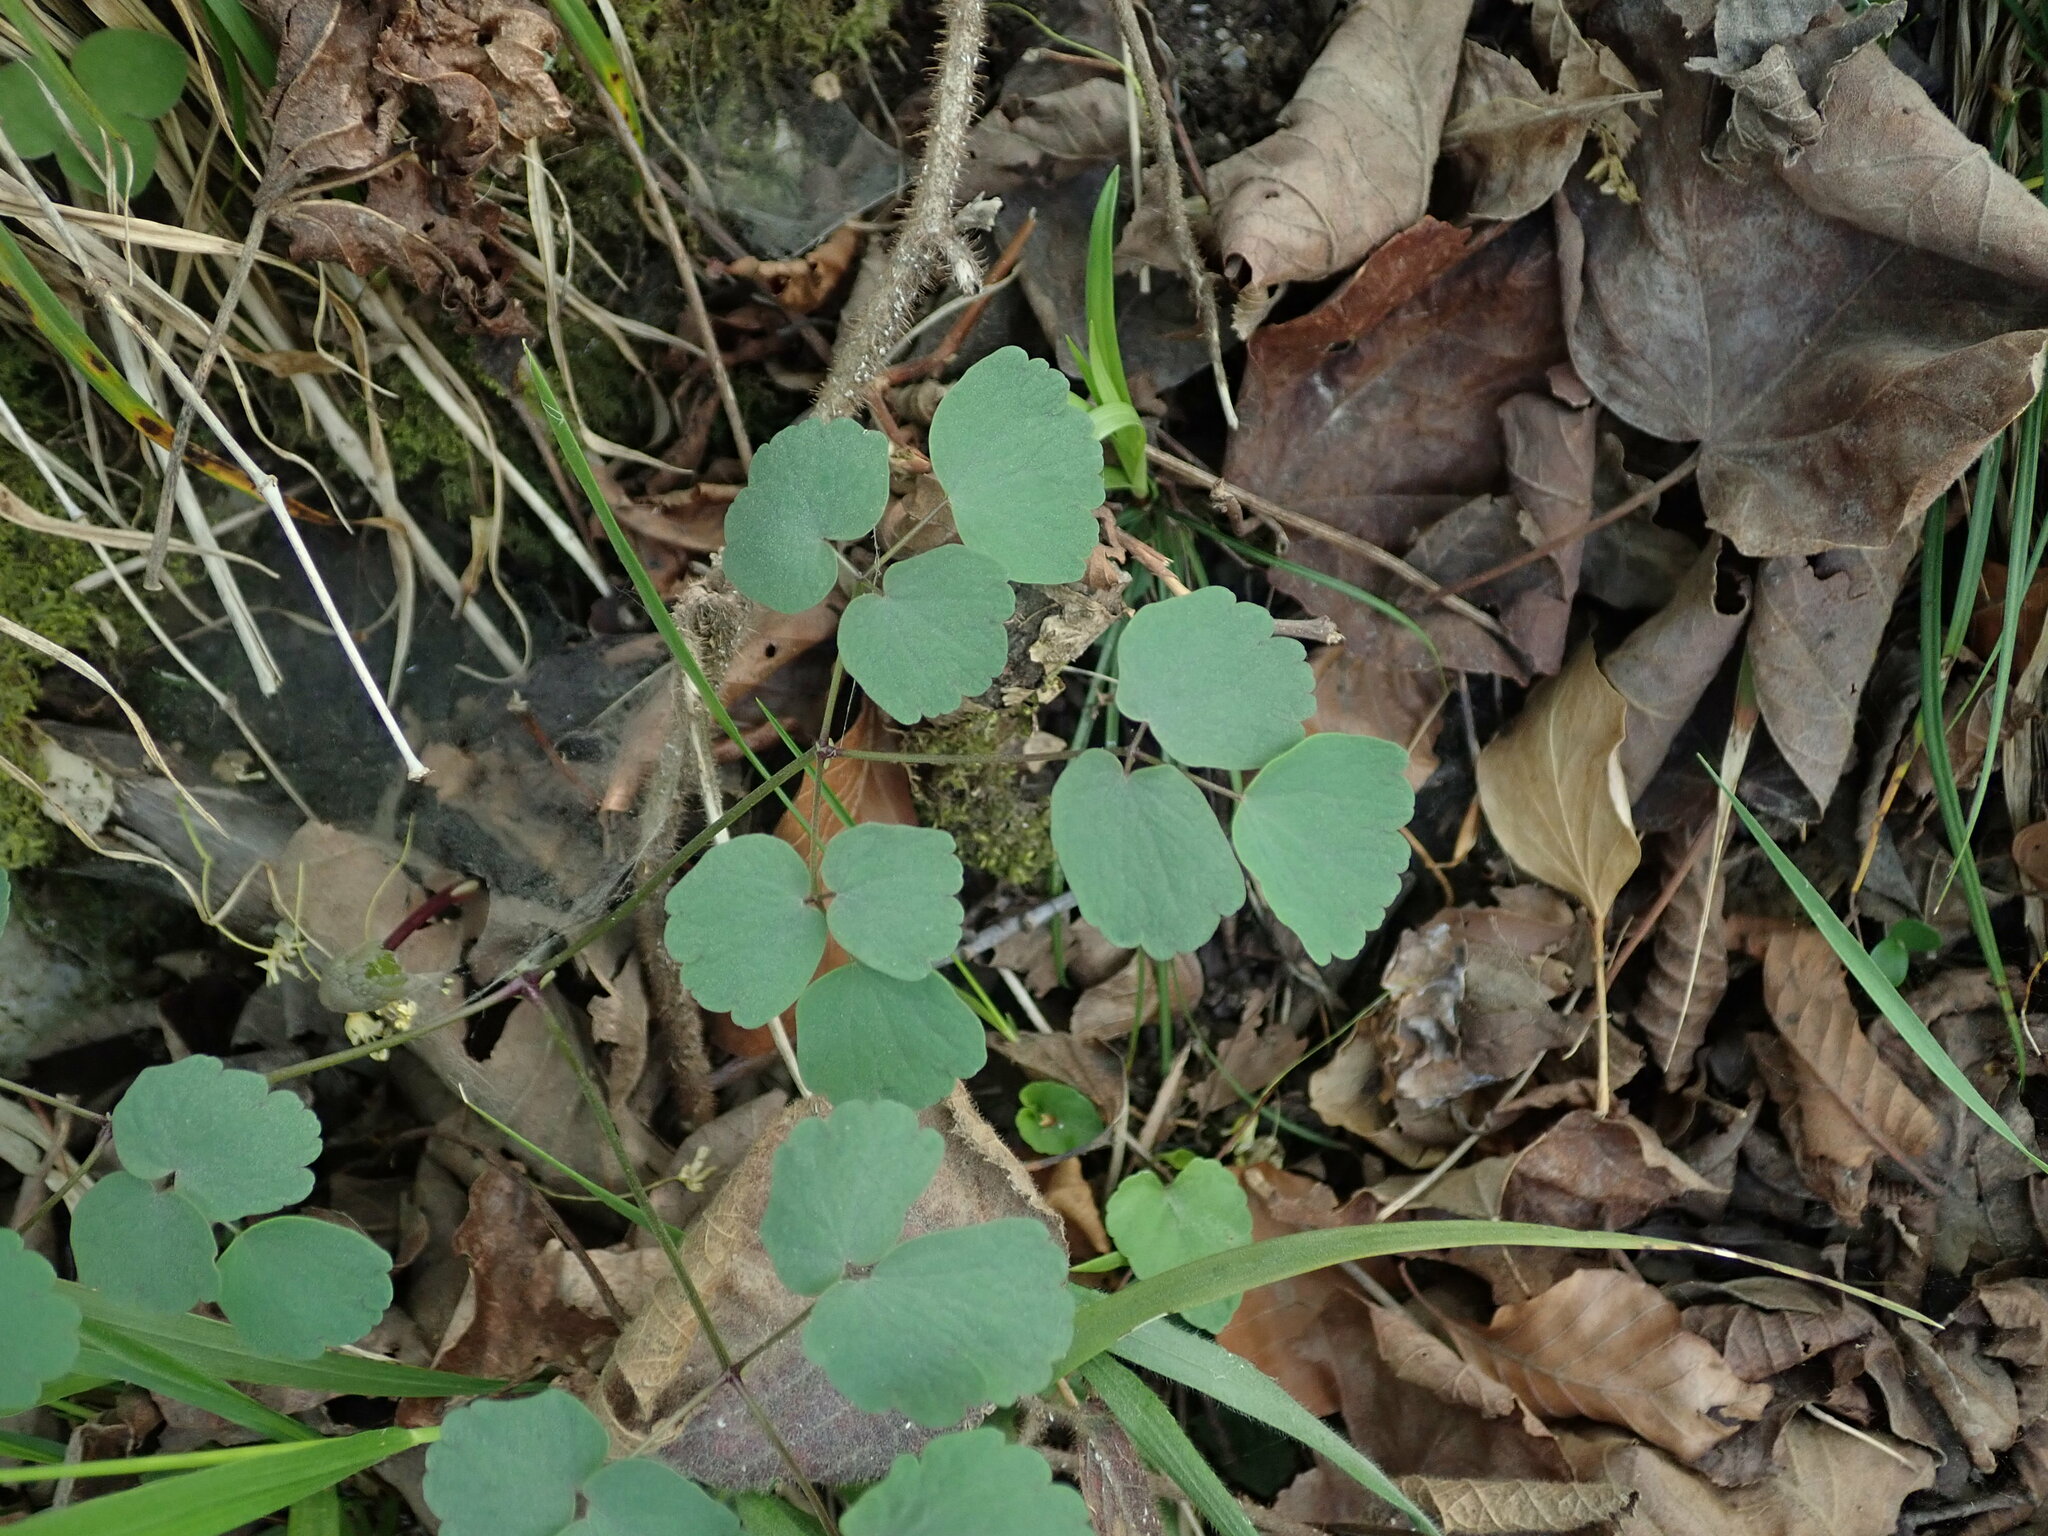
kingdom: Plantae
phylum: Tracheophyta
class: Magnoliopsida
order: Ranunculales
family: Ranunculaceae
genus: Thalictrum
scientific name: Thalictrum aquilegiifolium
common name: French meadow-rue
